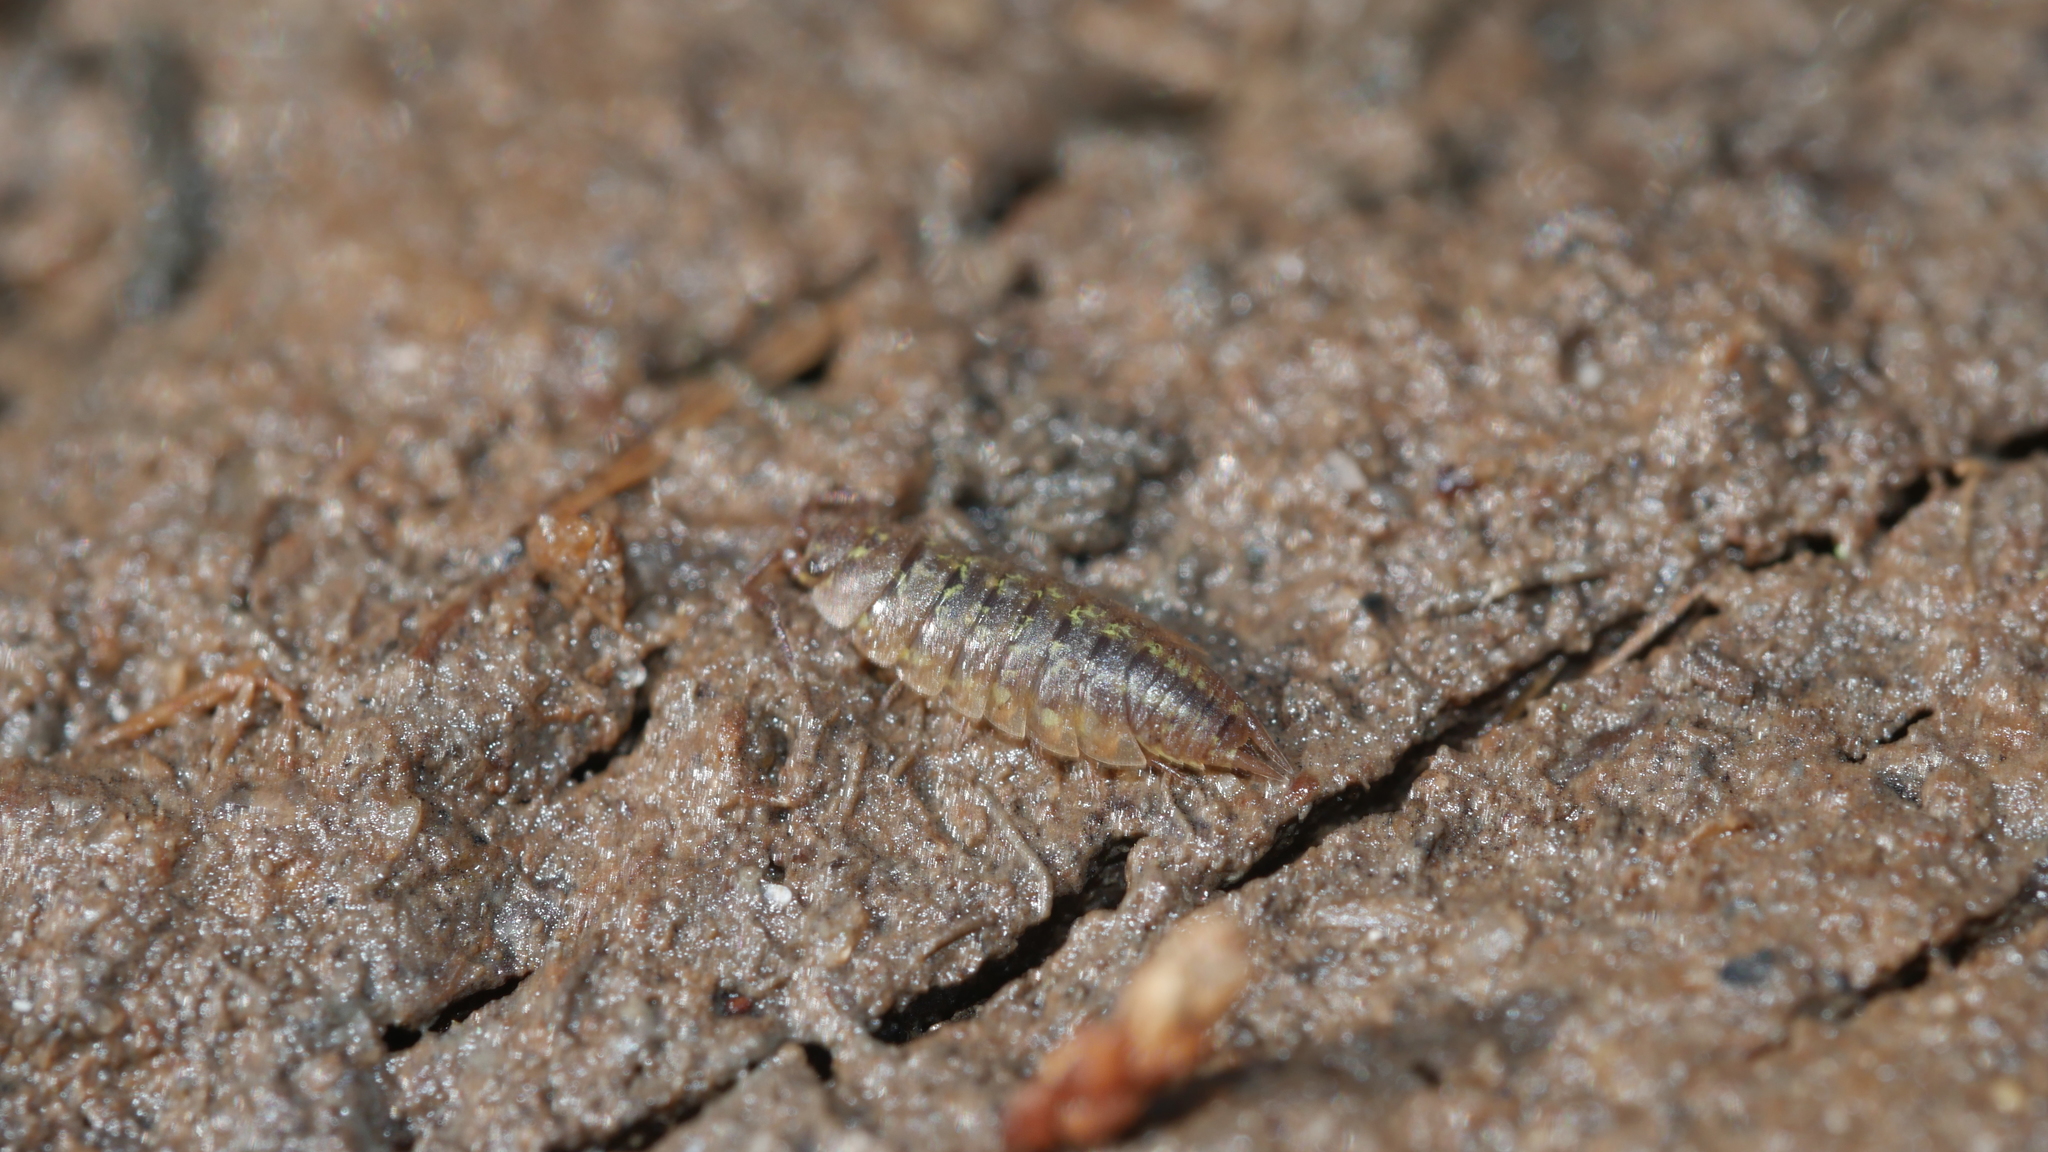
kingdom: Animalia
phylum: Arthropoda
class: Malacostraca
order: Isopoda
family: Halophilosciidae
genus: Littorophiloscia
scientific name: Littorophiloscia vittata
